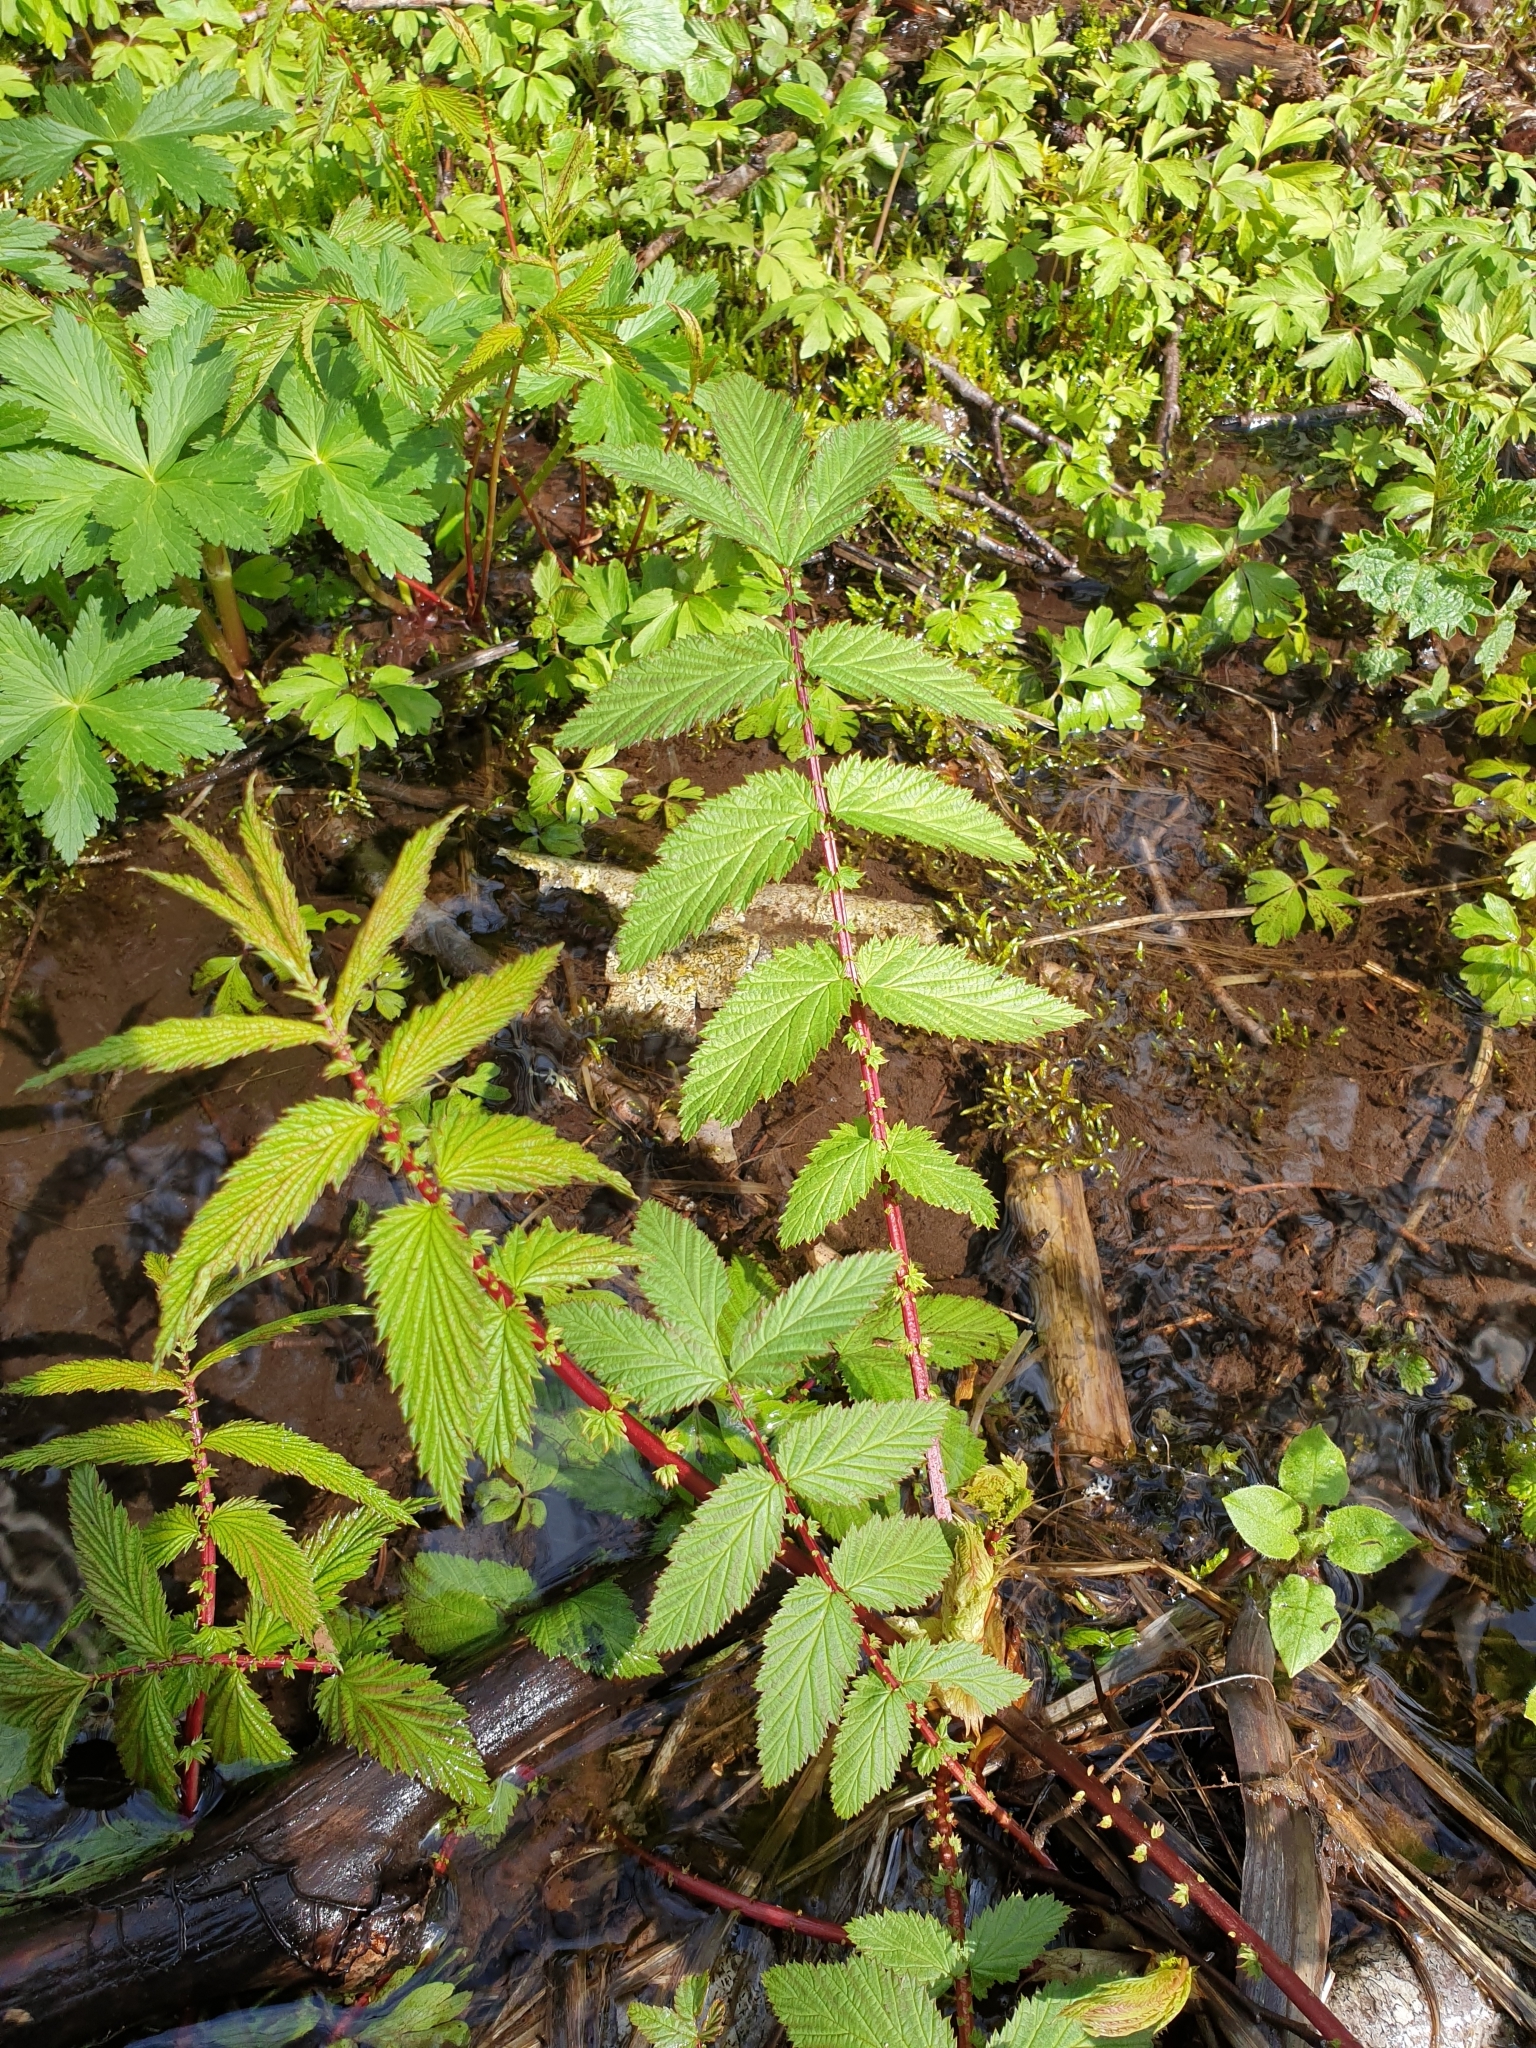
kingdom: Plantae
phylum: Tracheophyta
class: Magnoliopsida
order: Rosales
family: Rosaceae
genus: Filipendula
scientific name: Filipendula ulmaria
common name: Meadowsweet
